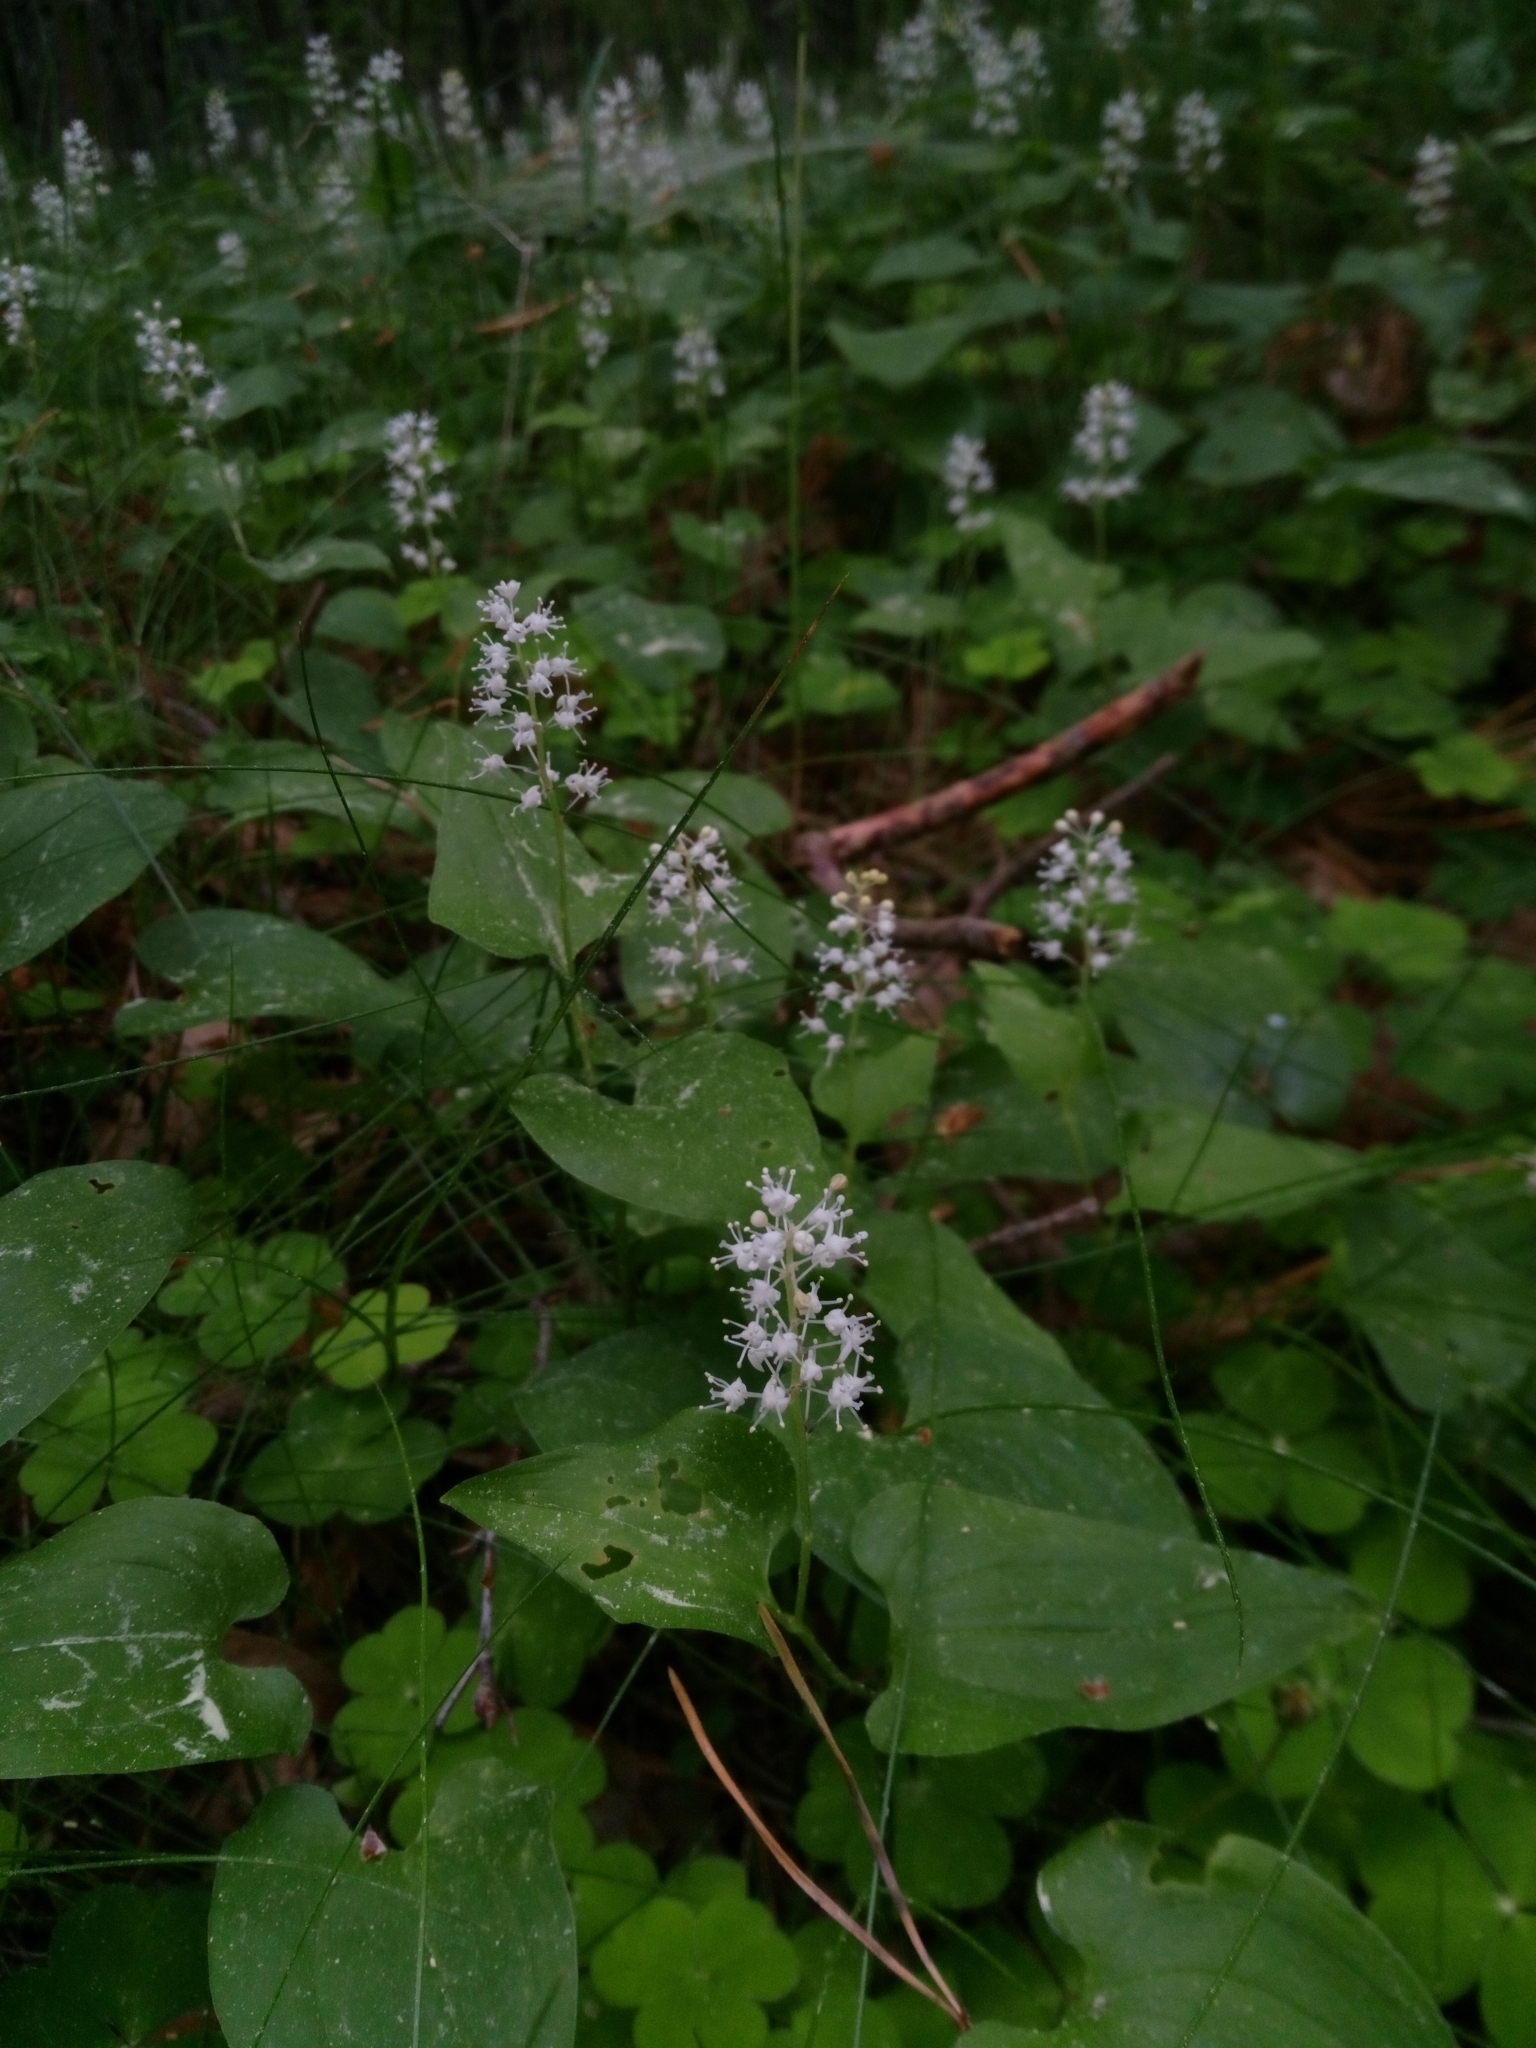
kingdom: Plantae
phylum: Tracheophyta
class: Liliopsida
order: Asparagales
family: Asparagaceae
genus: Maianthemum
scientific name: Maianthemum bifolium
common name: May lily
